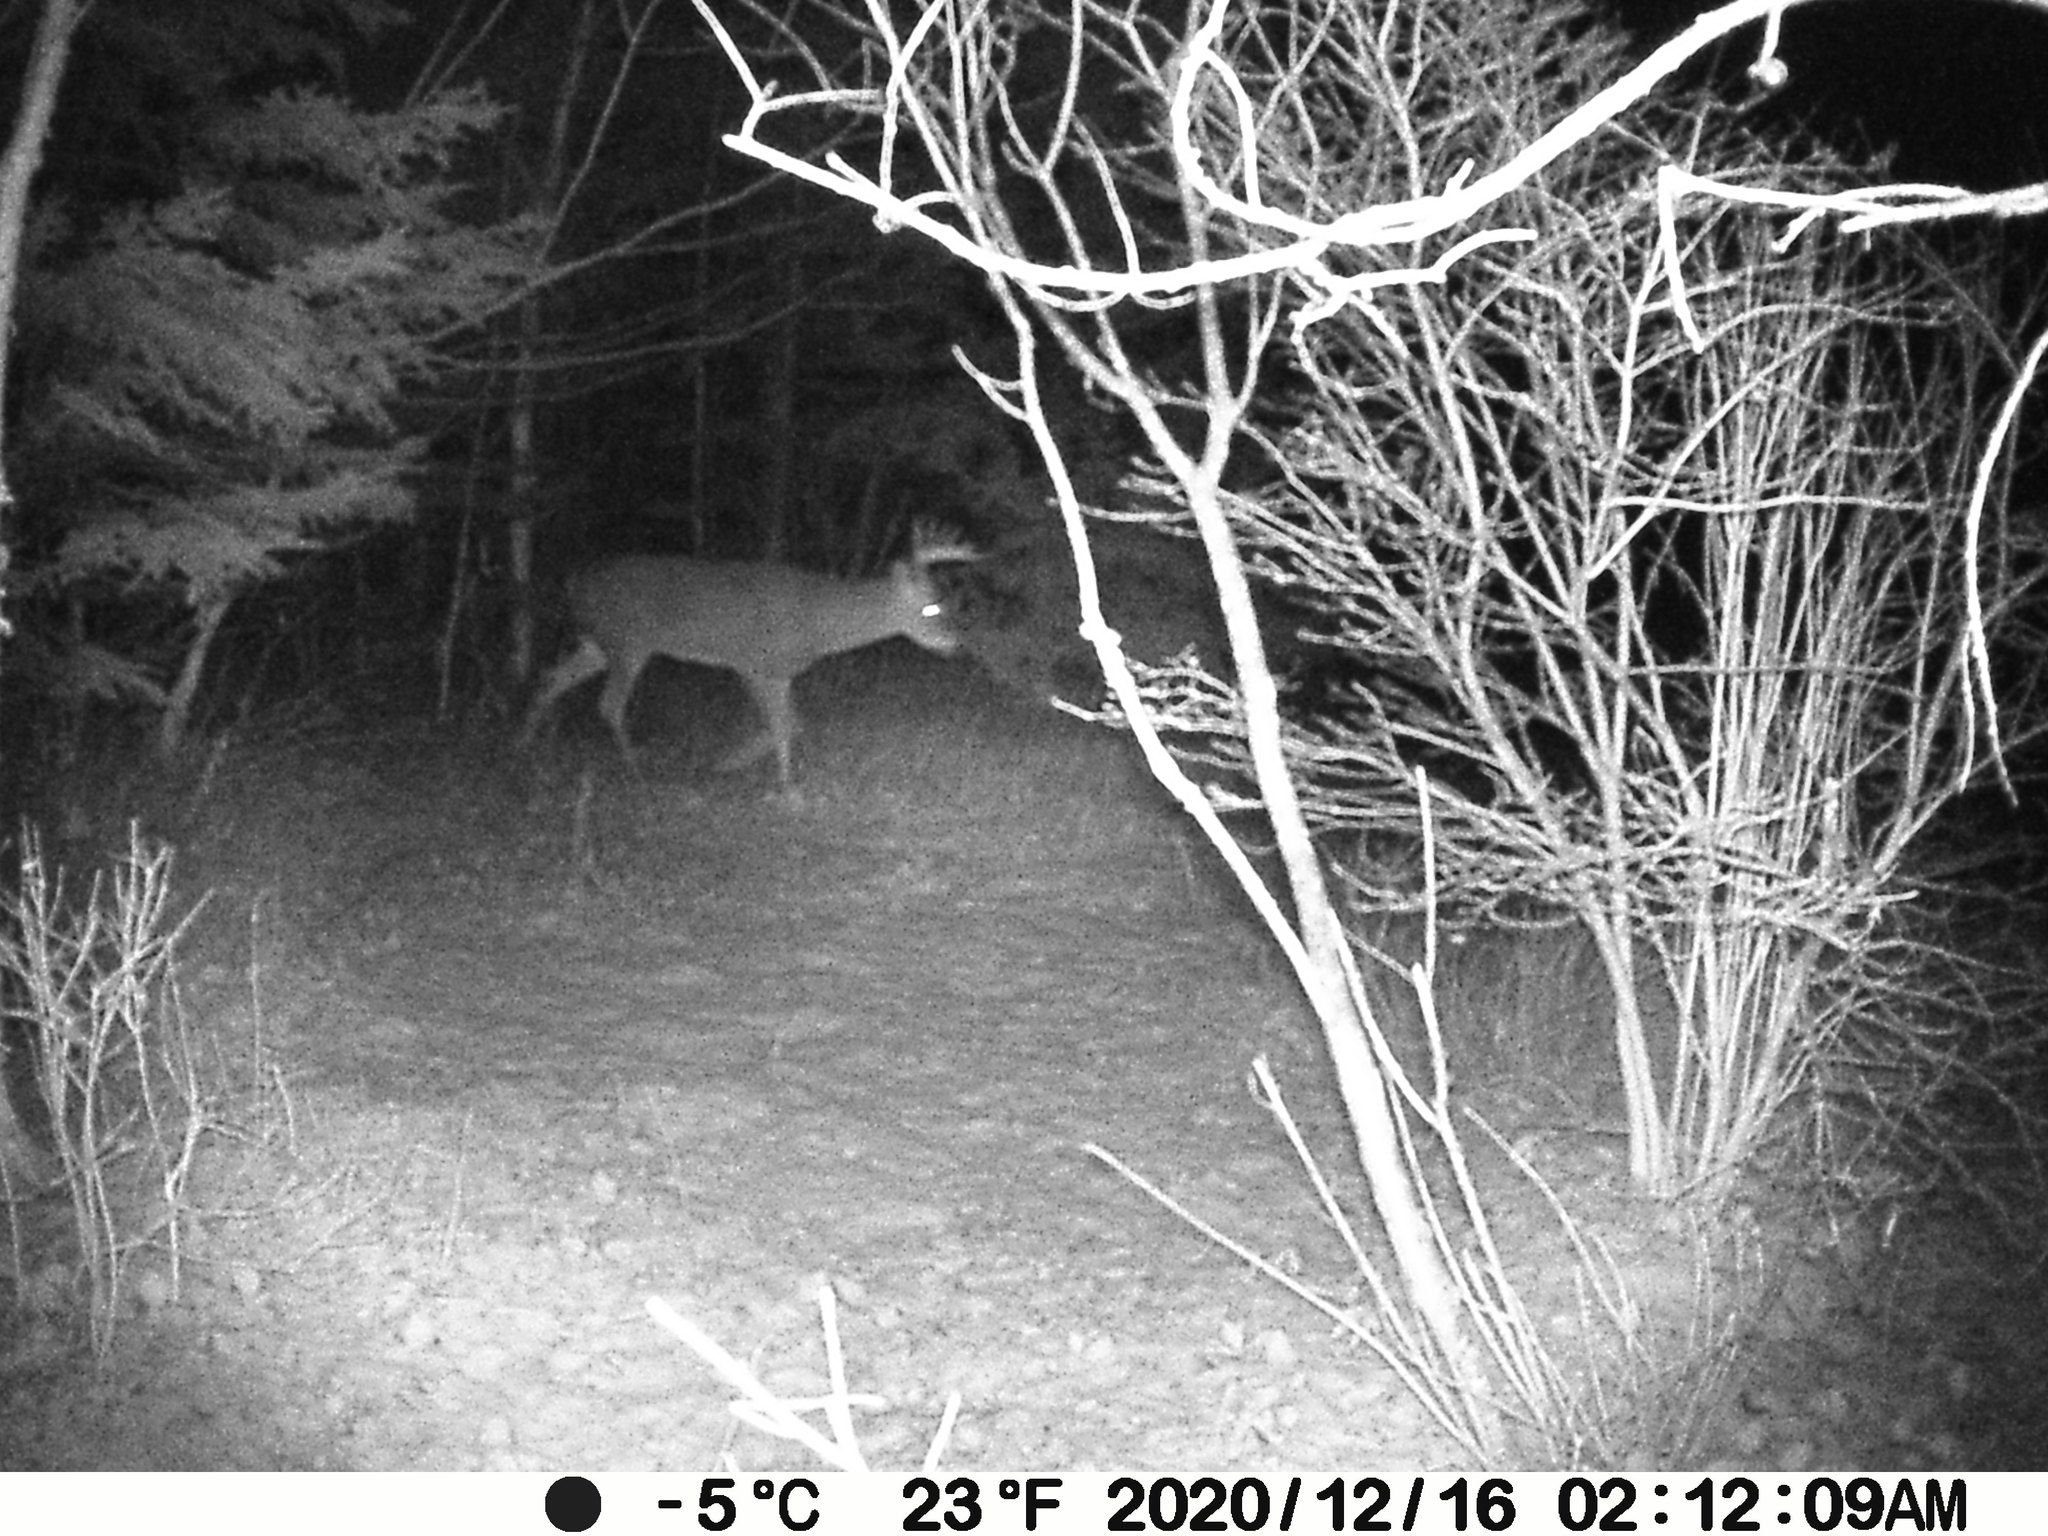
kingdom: Animalia
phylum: Chordata
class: Mammalia
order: Artiodactyla
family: Cervidae
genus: Odocoileus
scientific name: Odocoileus virginianus
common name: White-tailed deer
